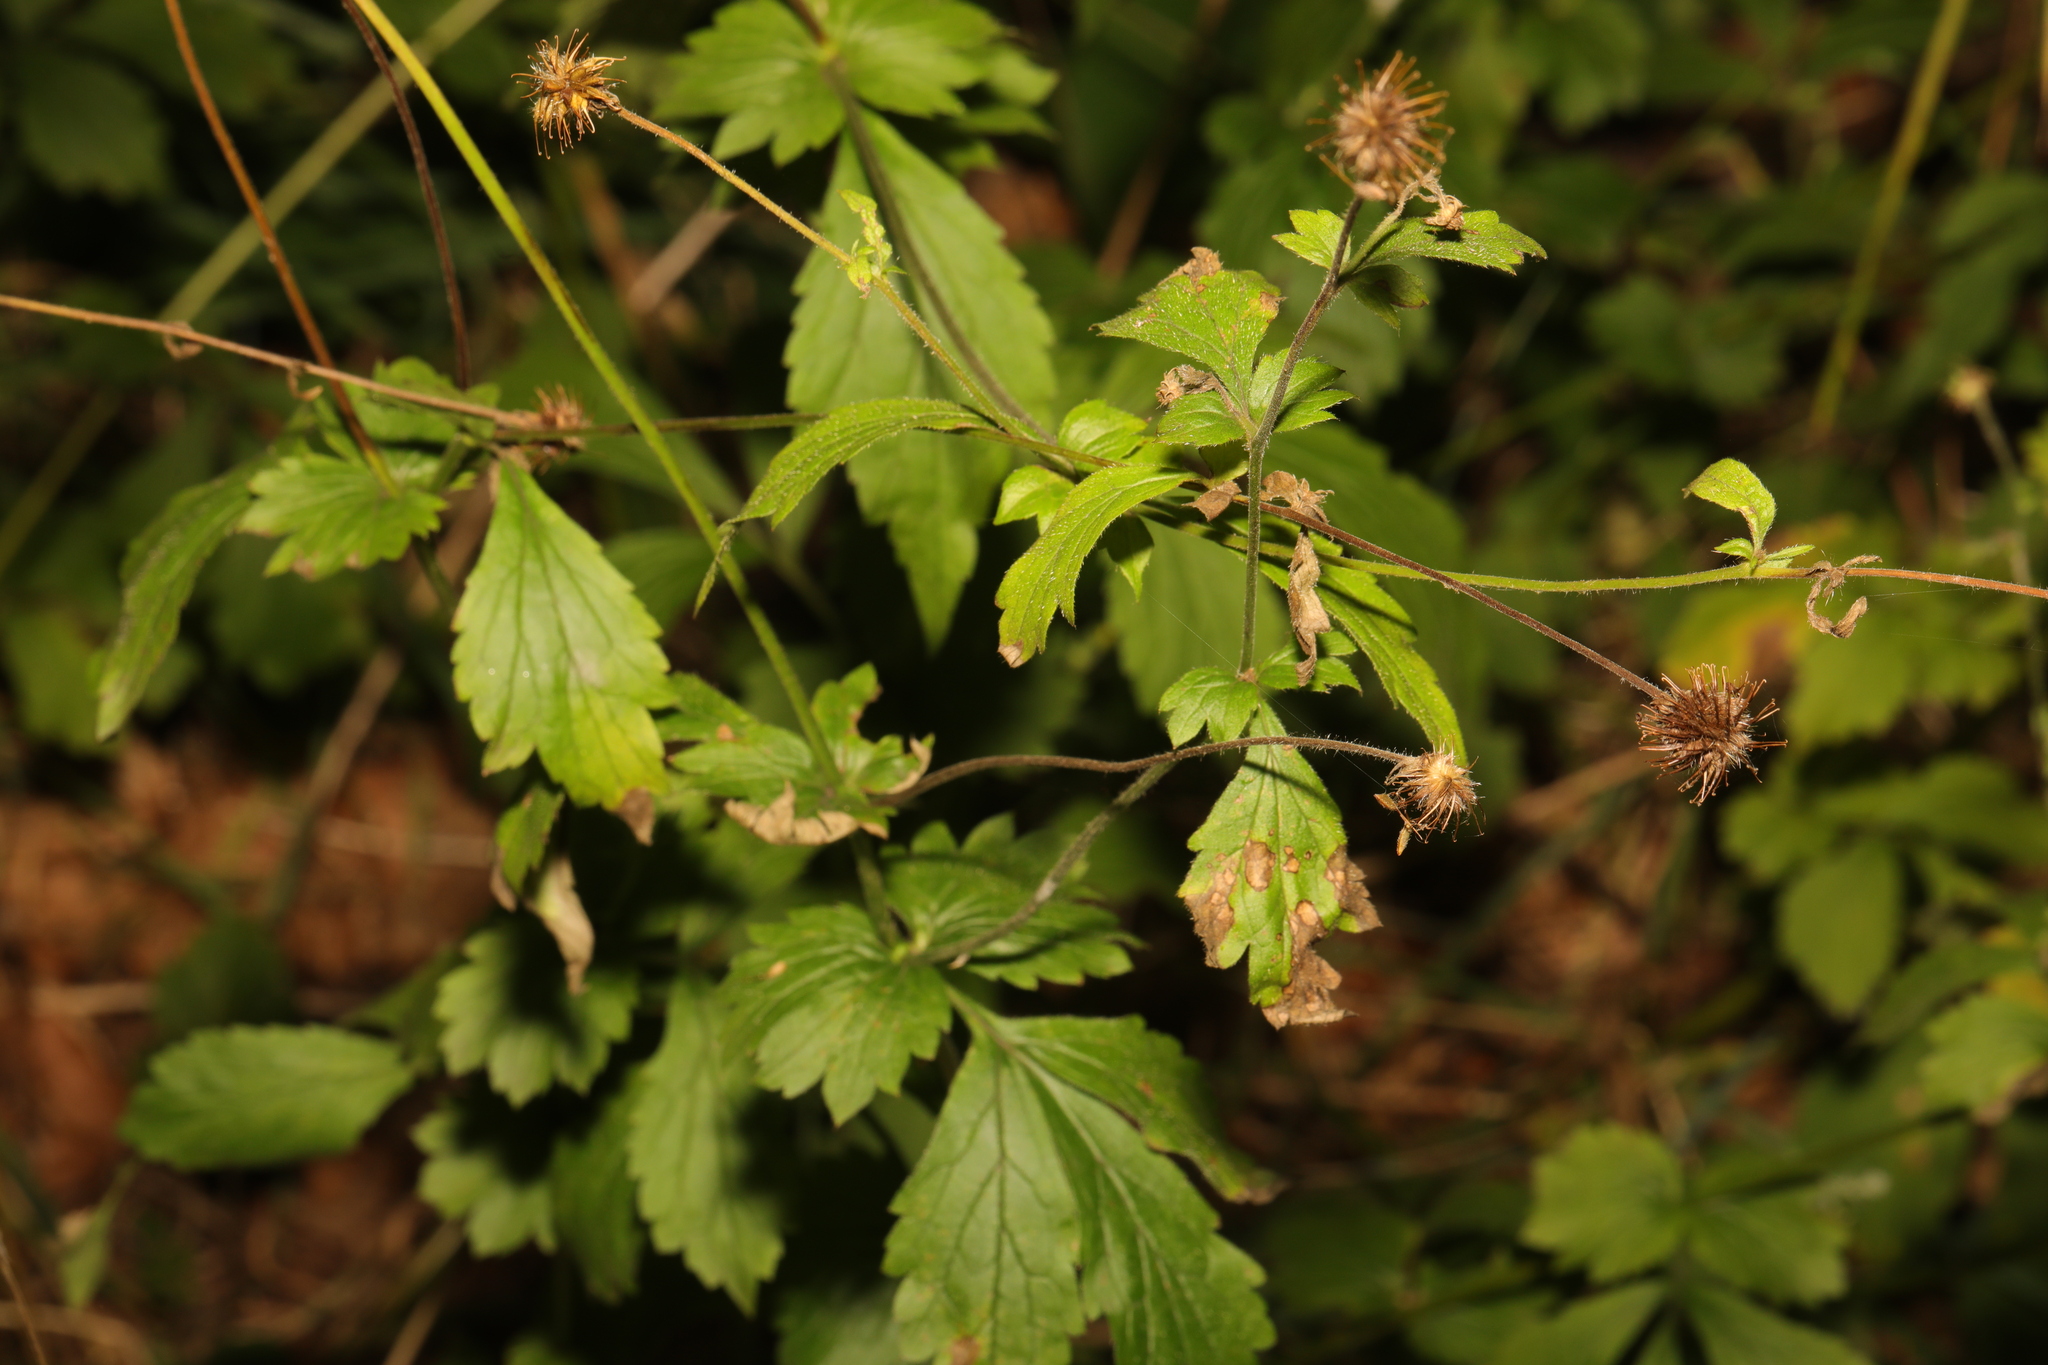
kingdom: Plantae
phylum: Tracheophyta
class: Magnoliopsida
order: Rosales
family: Rosaceae
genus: Geum
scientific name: Geum urbanum
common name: Wood avens
